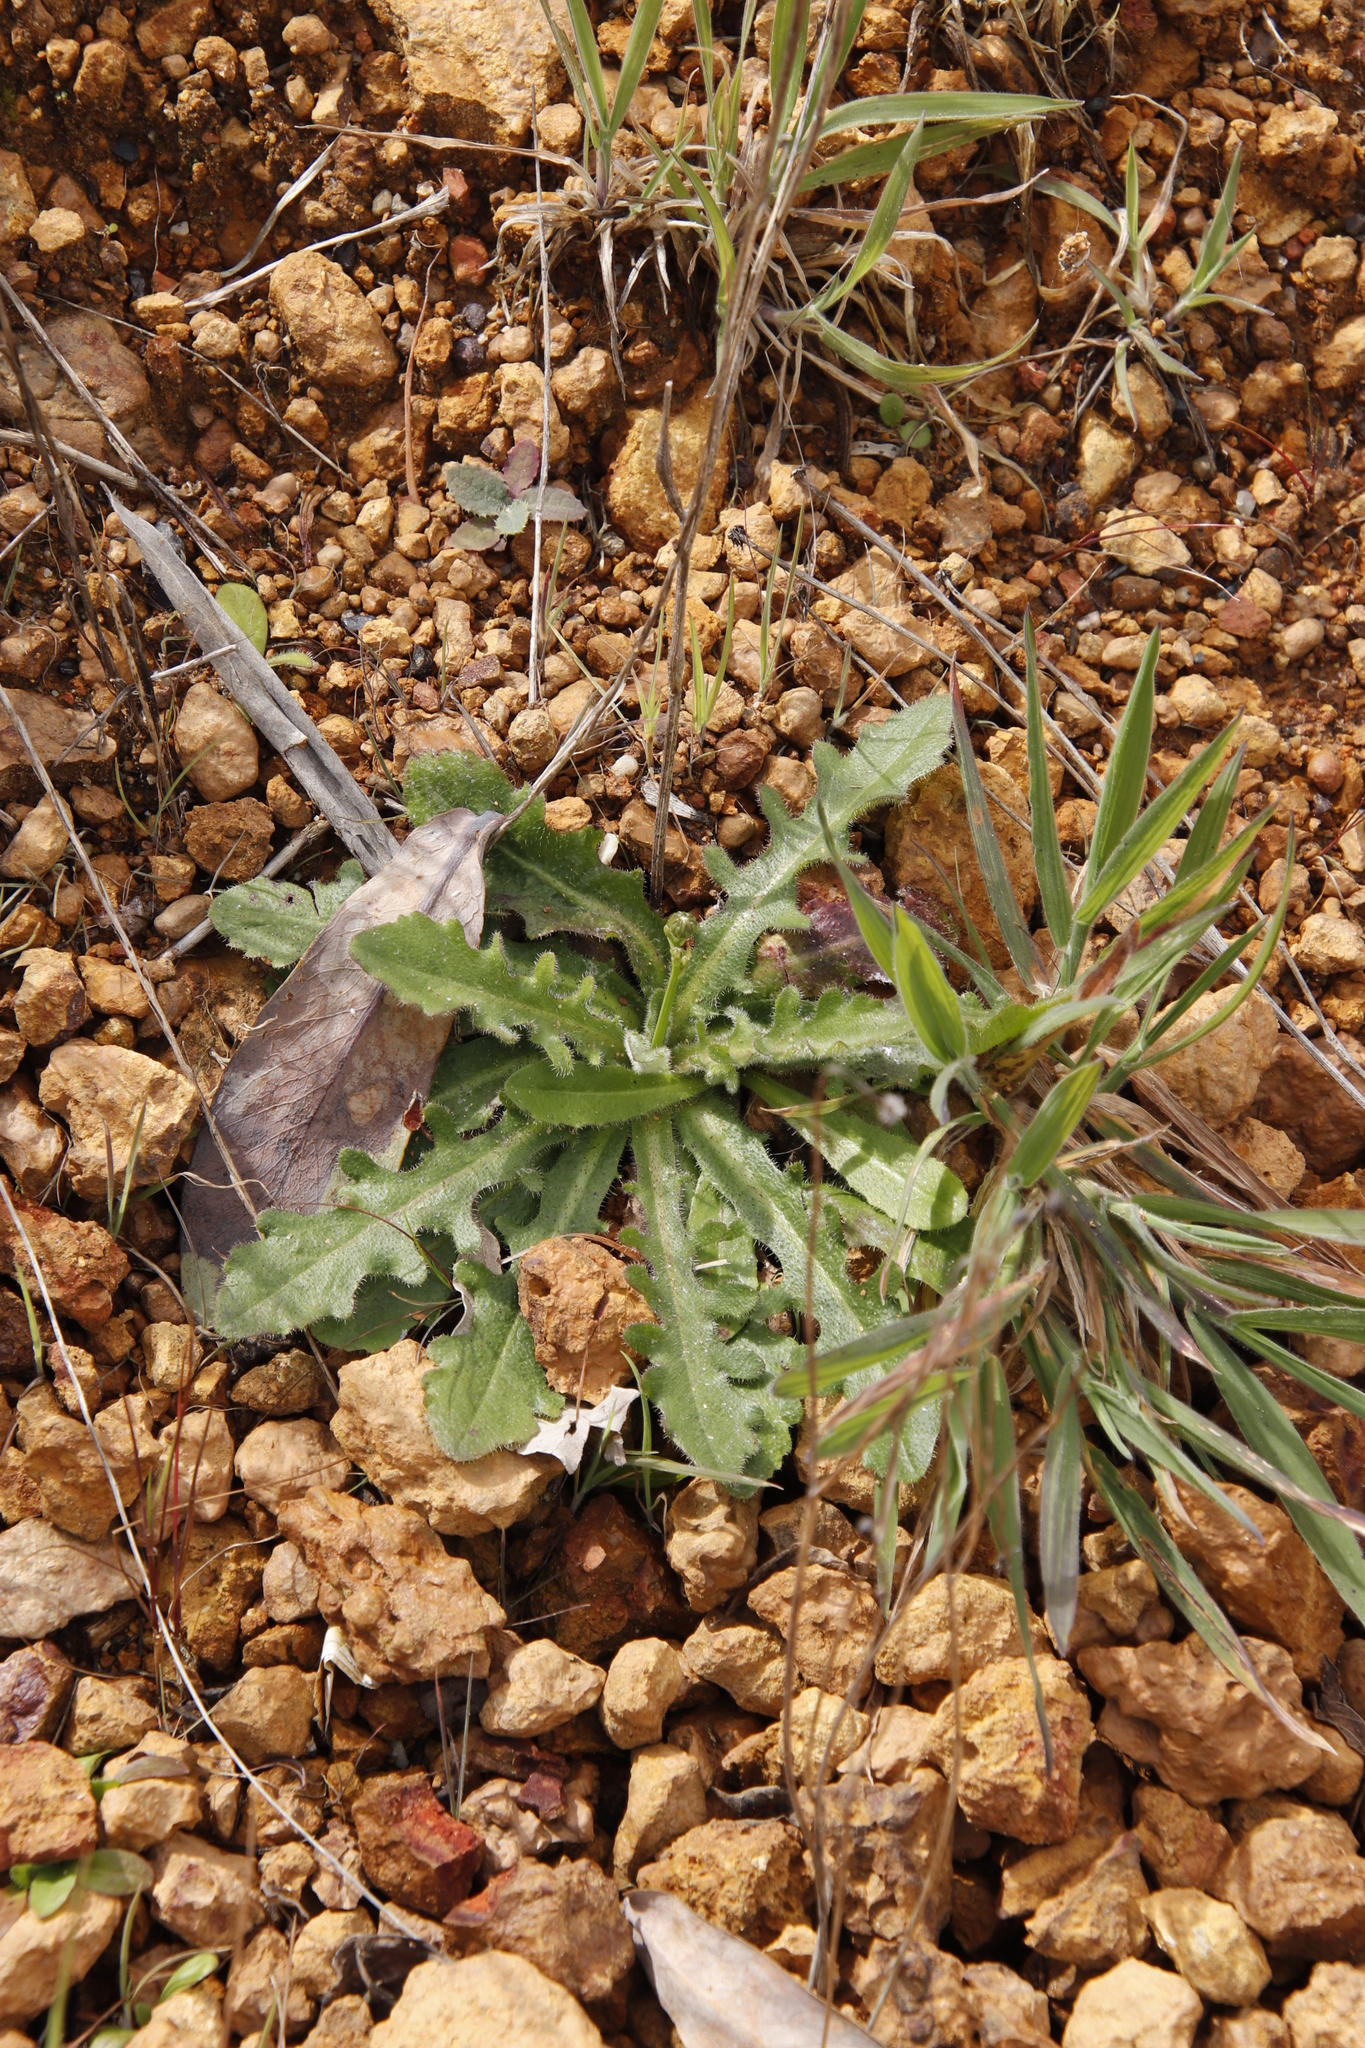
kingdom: Plantae
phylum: Tracheophyta
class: Magnoliopsida
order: Asterales
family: Asteraceae
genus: Hypochaeris
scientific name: Hypochaeris radicata
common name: Flatweed
